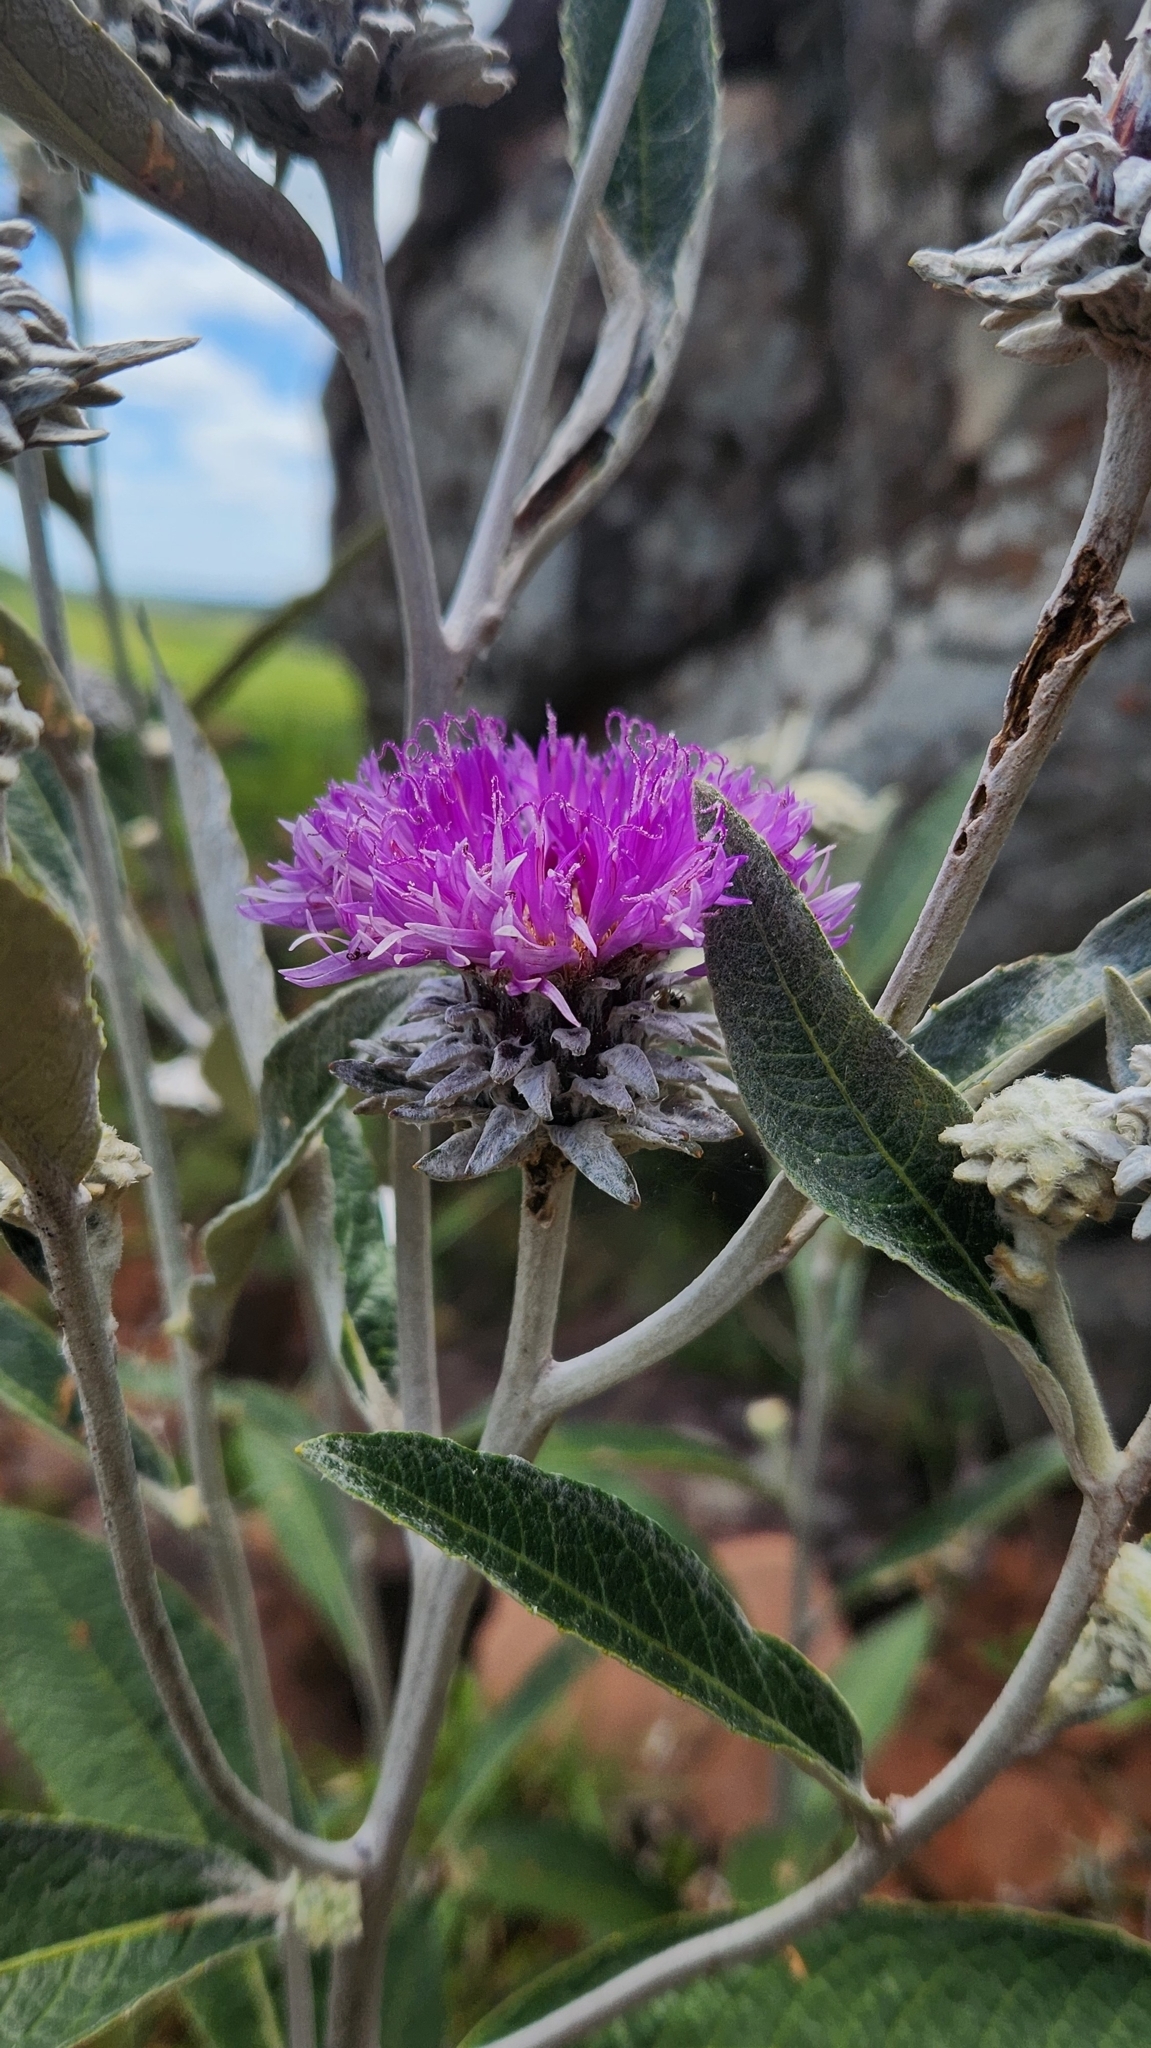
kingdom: Plantae
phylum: Tracheophyta
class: Magnoliopsida
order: Asterales
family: Asteraceae
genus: Lessingianthus
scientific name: Lessingianthus macrocephalus
